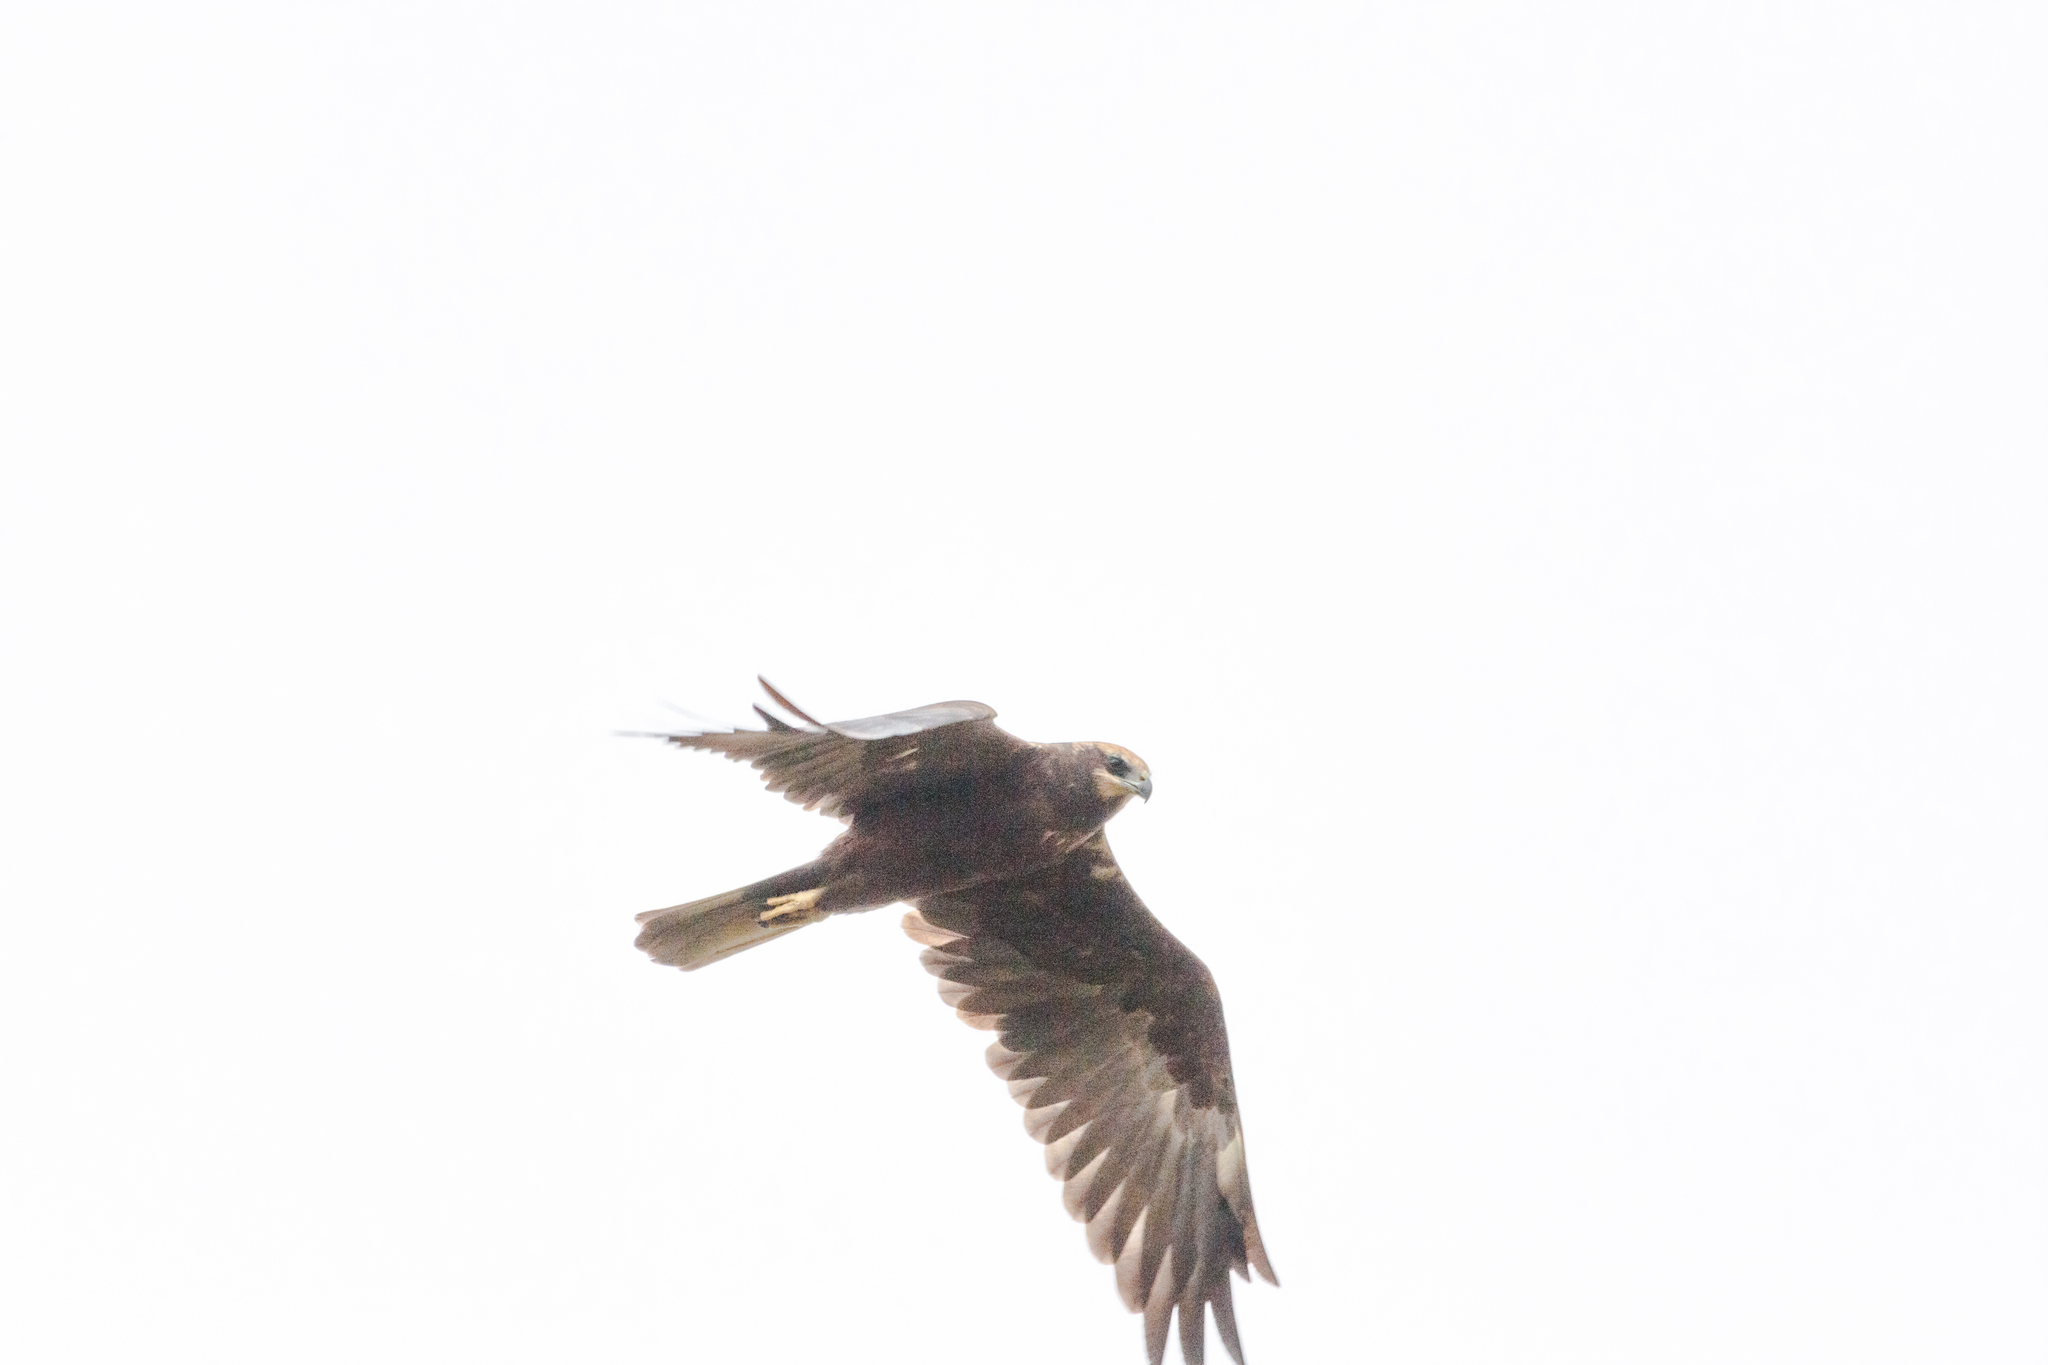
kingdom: Animalia
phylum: Chordata
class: Aves
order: Accipitriformes
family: Accipitridae
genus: Circus
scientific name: Circus aeruginosus
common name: Western marsh harrier
